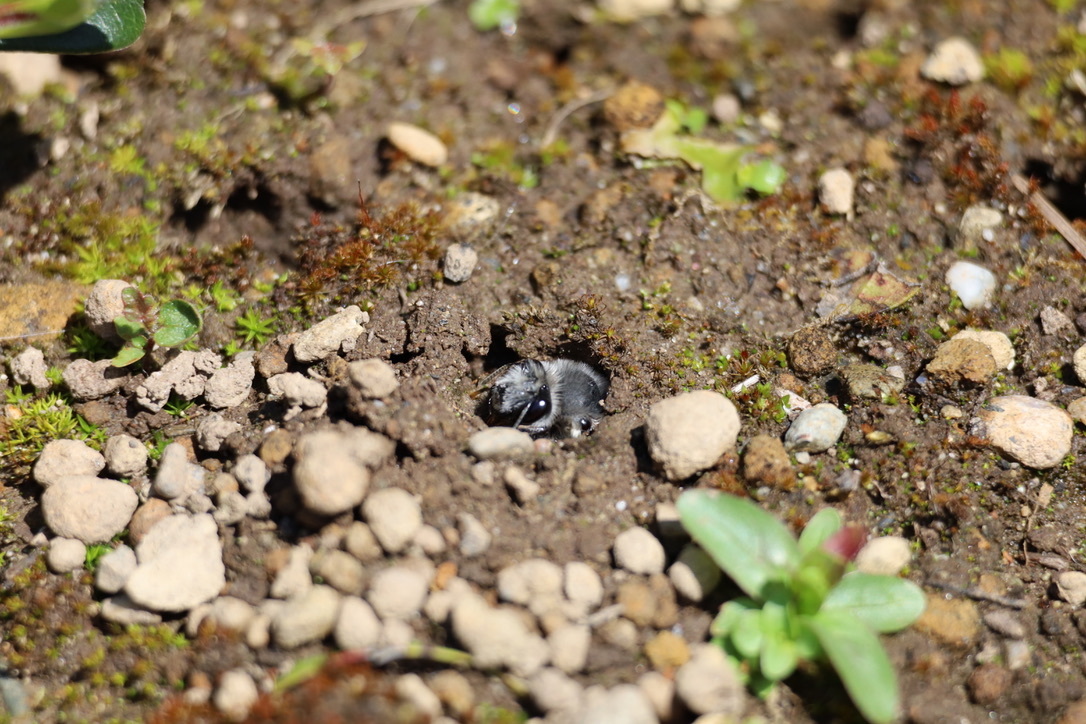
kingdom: Animalia
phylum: Arthropoda
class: Insecta
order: Hymenoptera
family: Apidae
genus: Anthophora
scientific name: Anthophora pacifica
